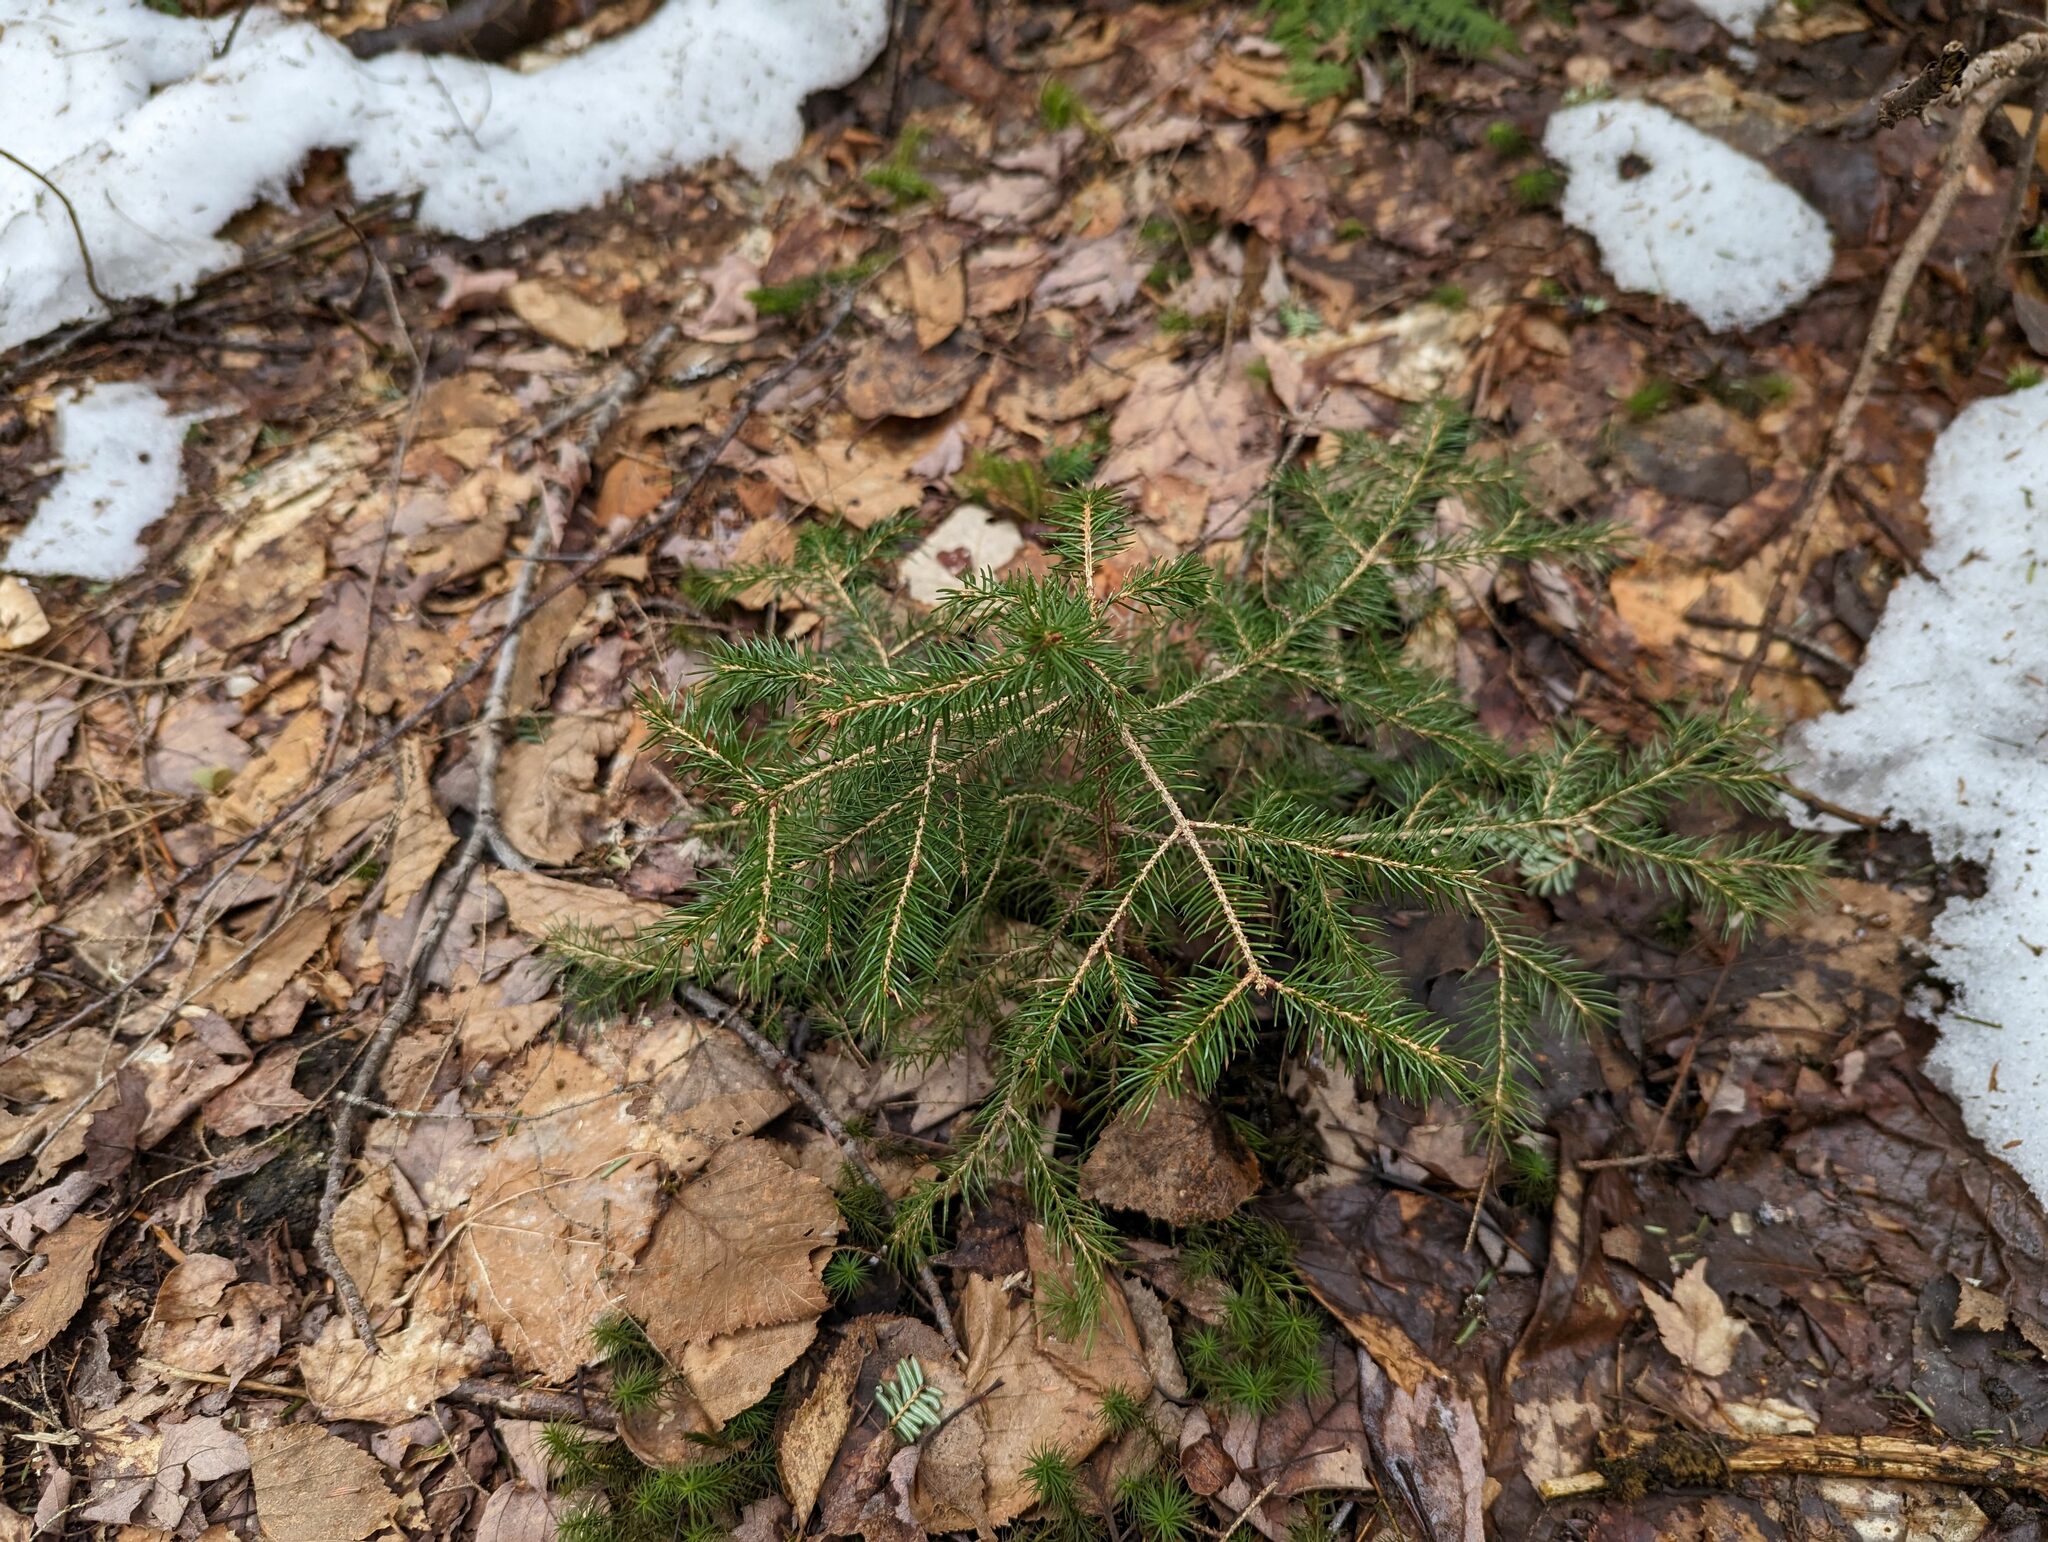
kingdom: Plantae
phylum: Tracheophyta
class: Pinopsida
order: Pinales
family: Pinaceae
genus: Picea
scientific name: Picea rubens
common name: Red spruce
